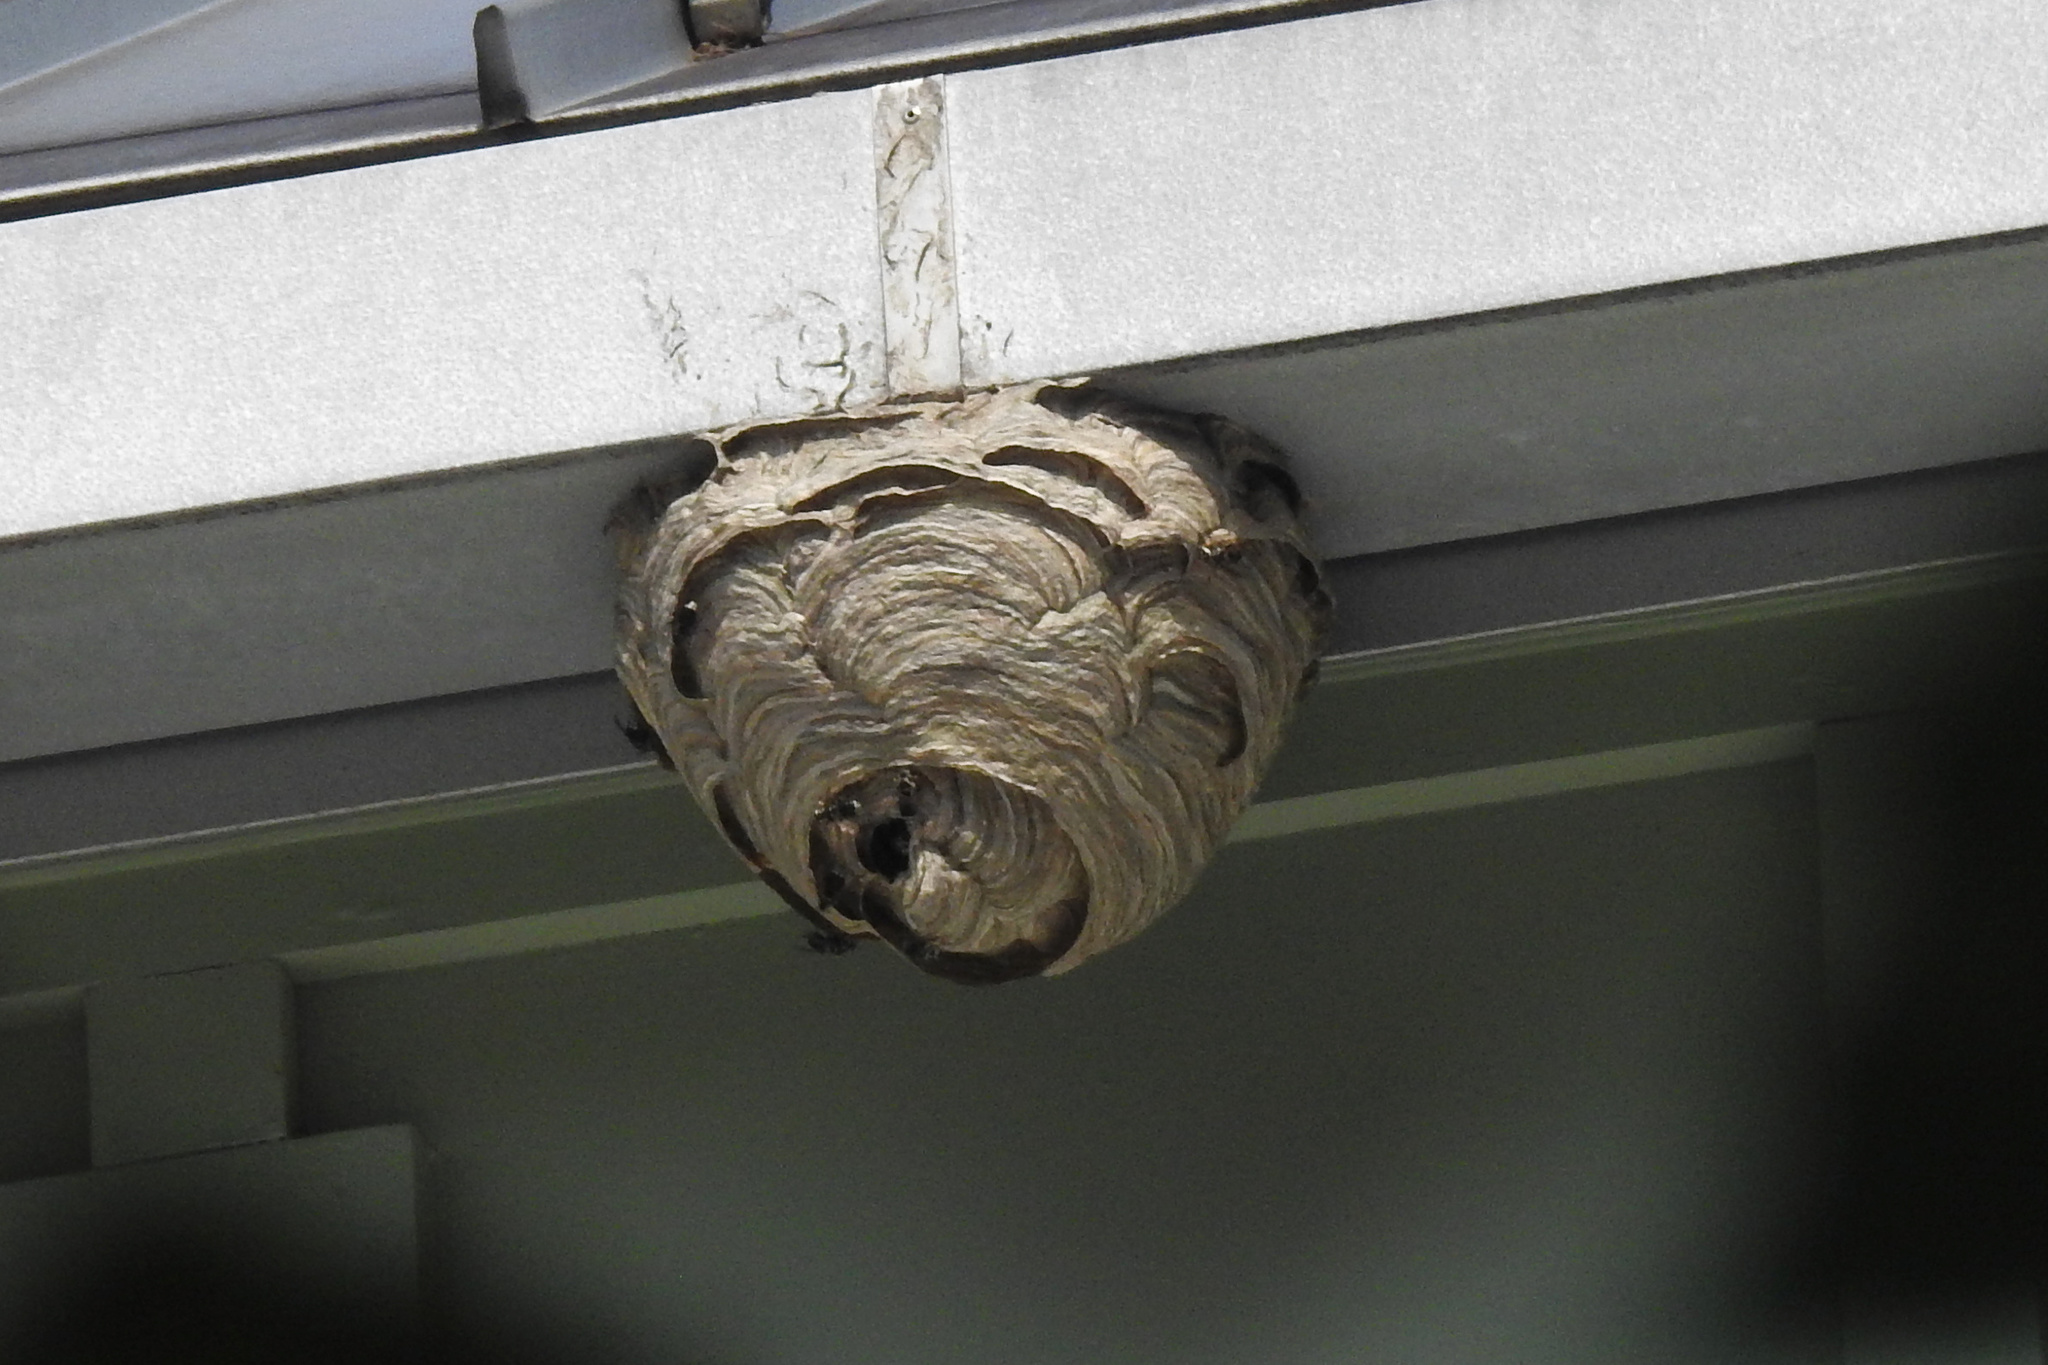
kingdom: Animalia
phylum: Arthropoda
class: Insecta
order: Hymenoptera
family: Vespidae
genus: Dolichovespula
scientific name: Dolichovespula maculata
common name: Bald-faced hornet
